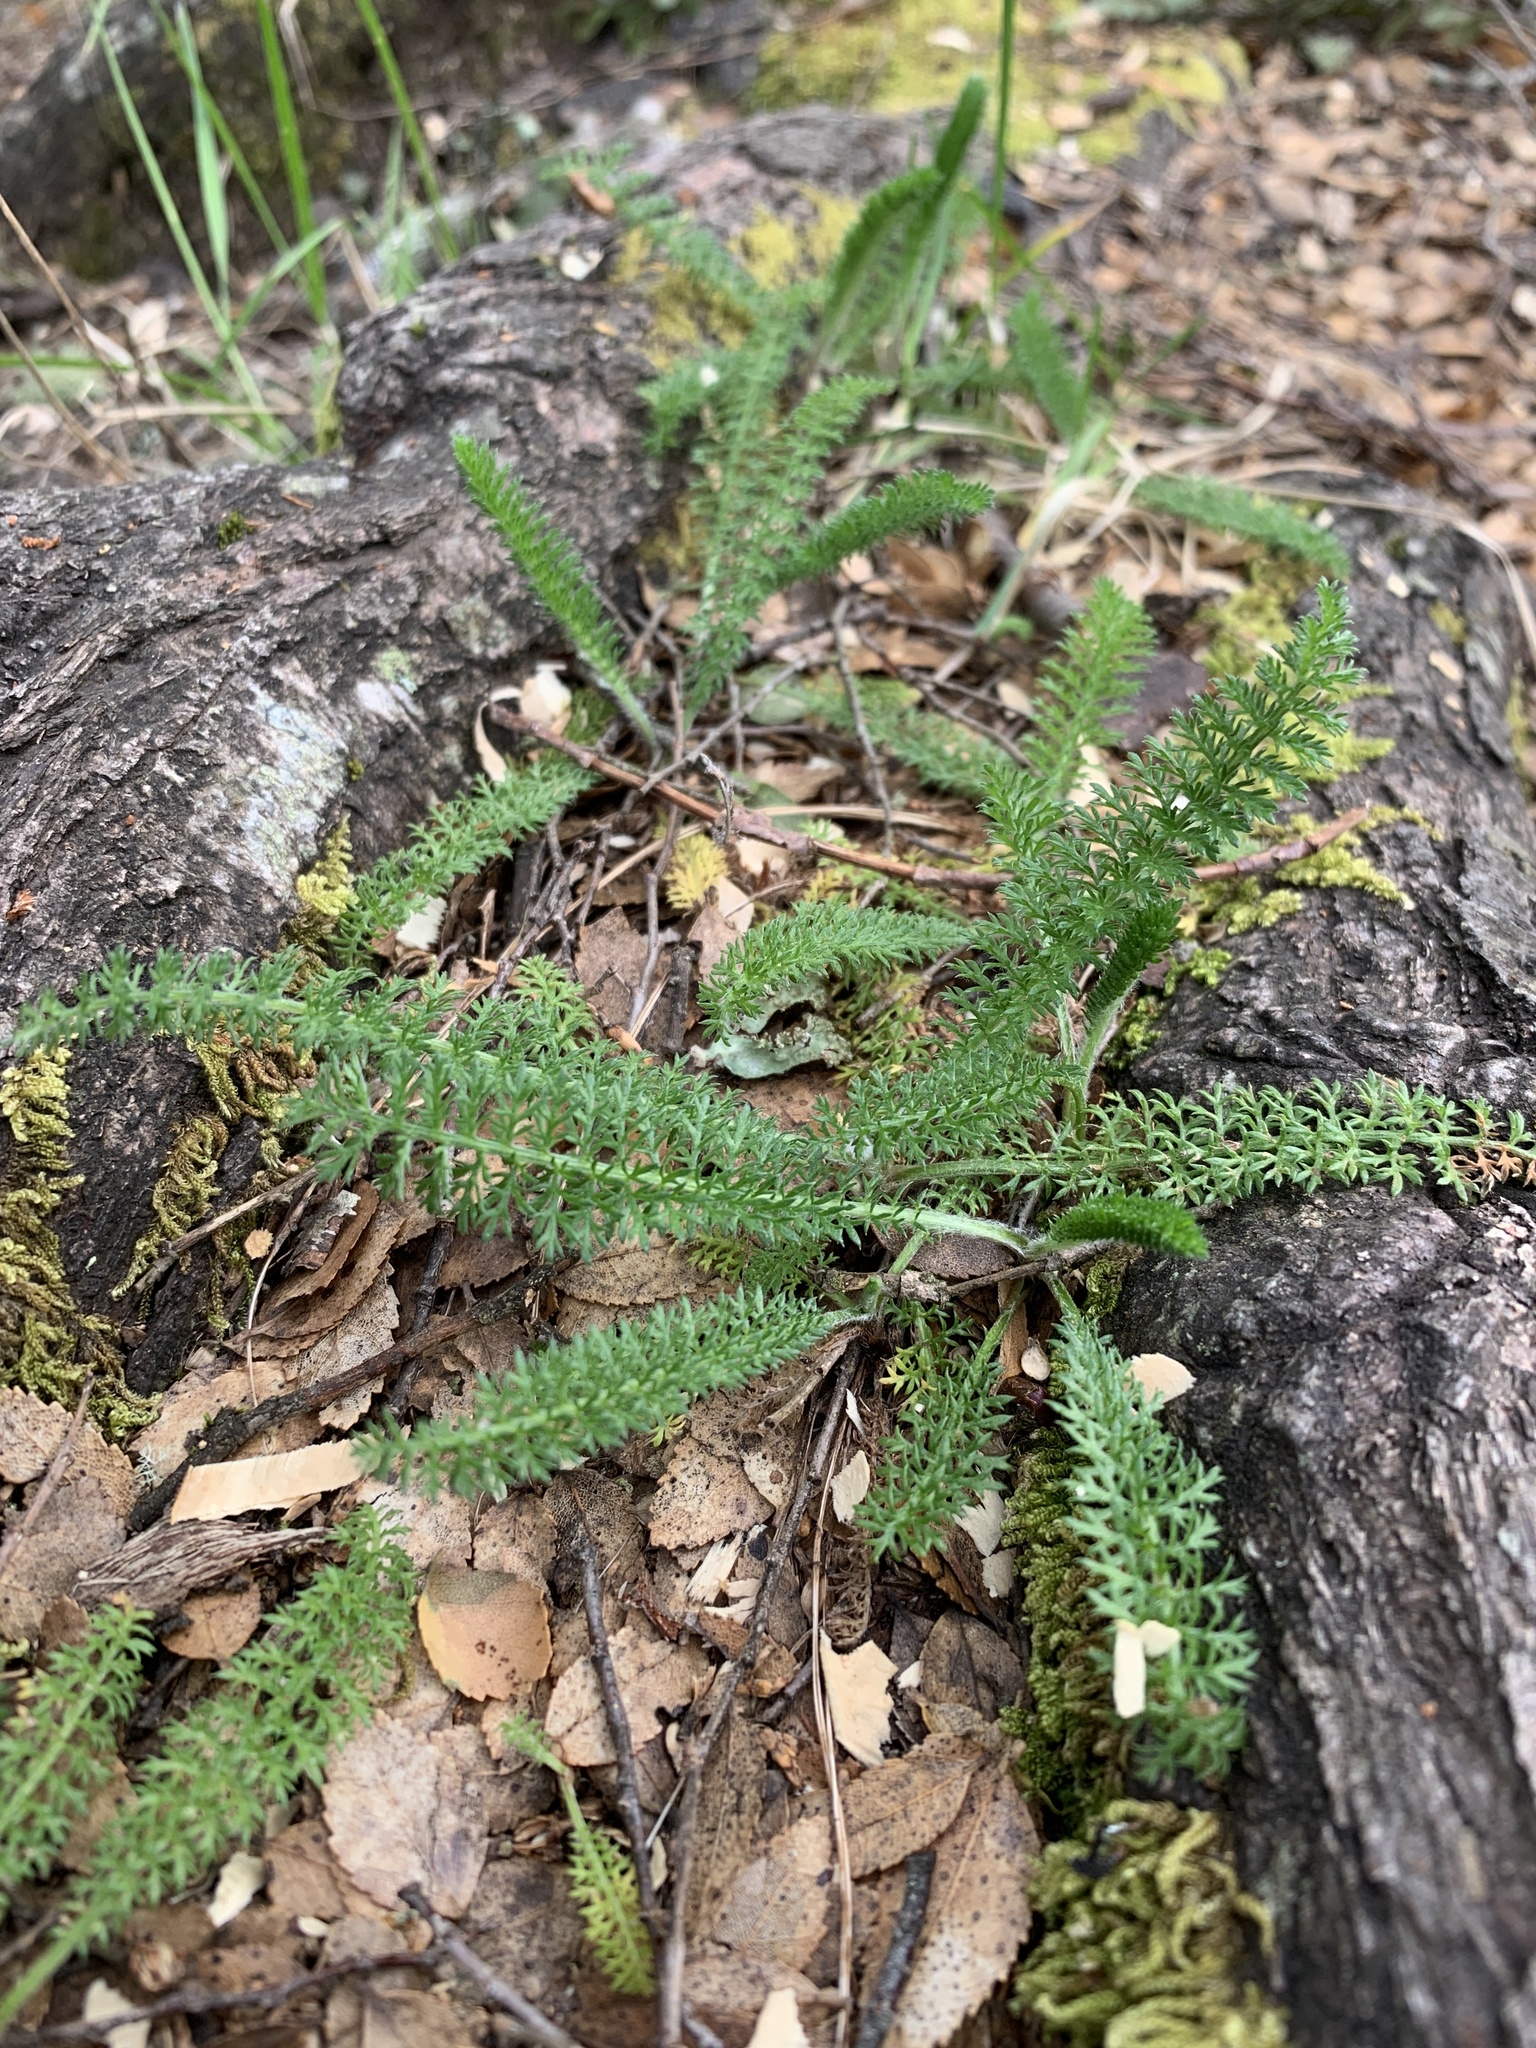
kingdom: Plantae
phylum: Tracheophyta
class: Magnoliopsida
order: Asterales
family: Asteraceae
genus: Achillea
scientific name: Achillea millefolium
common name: Yarrow
